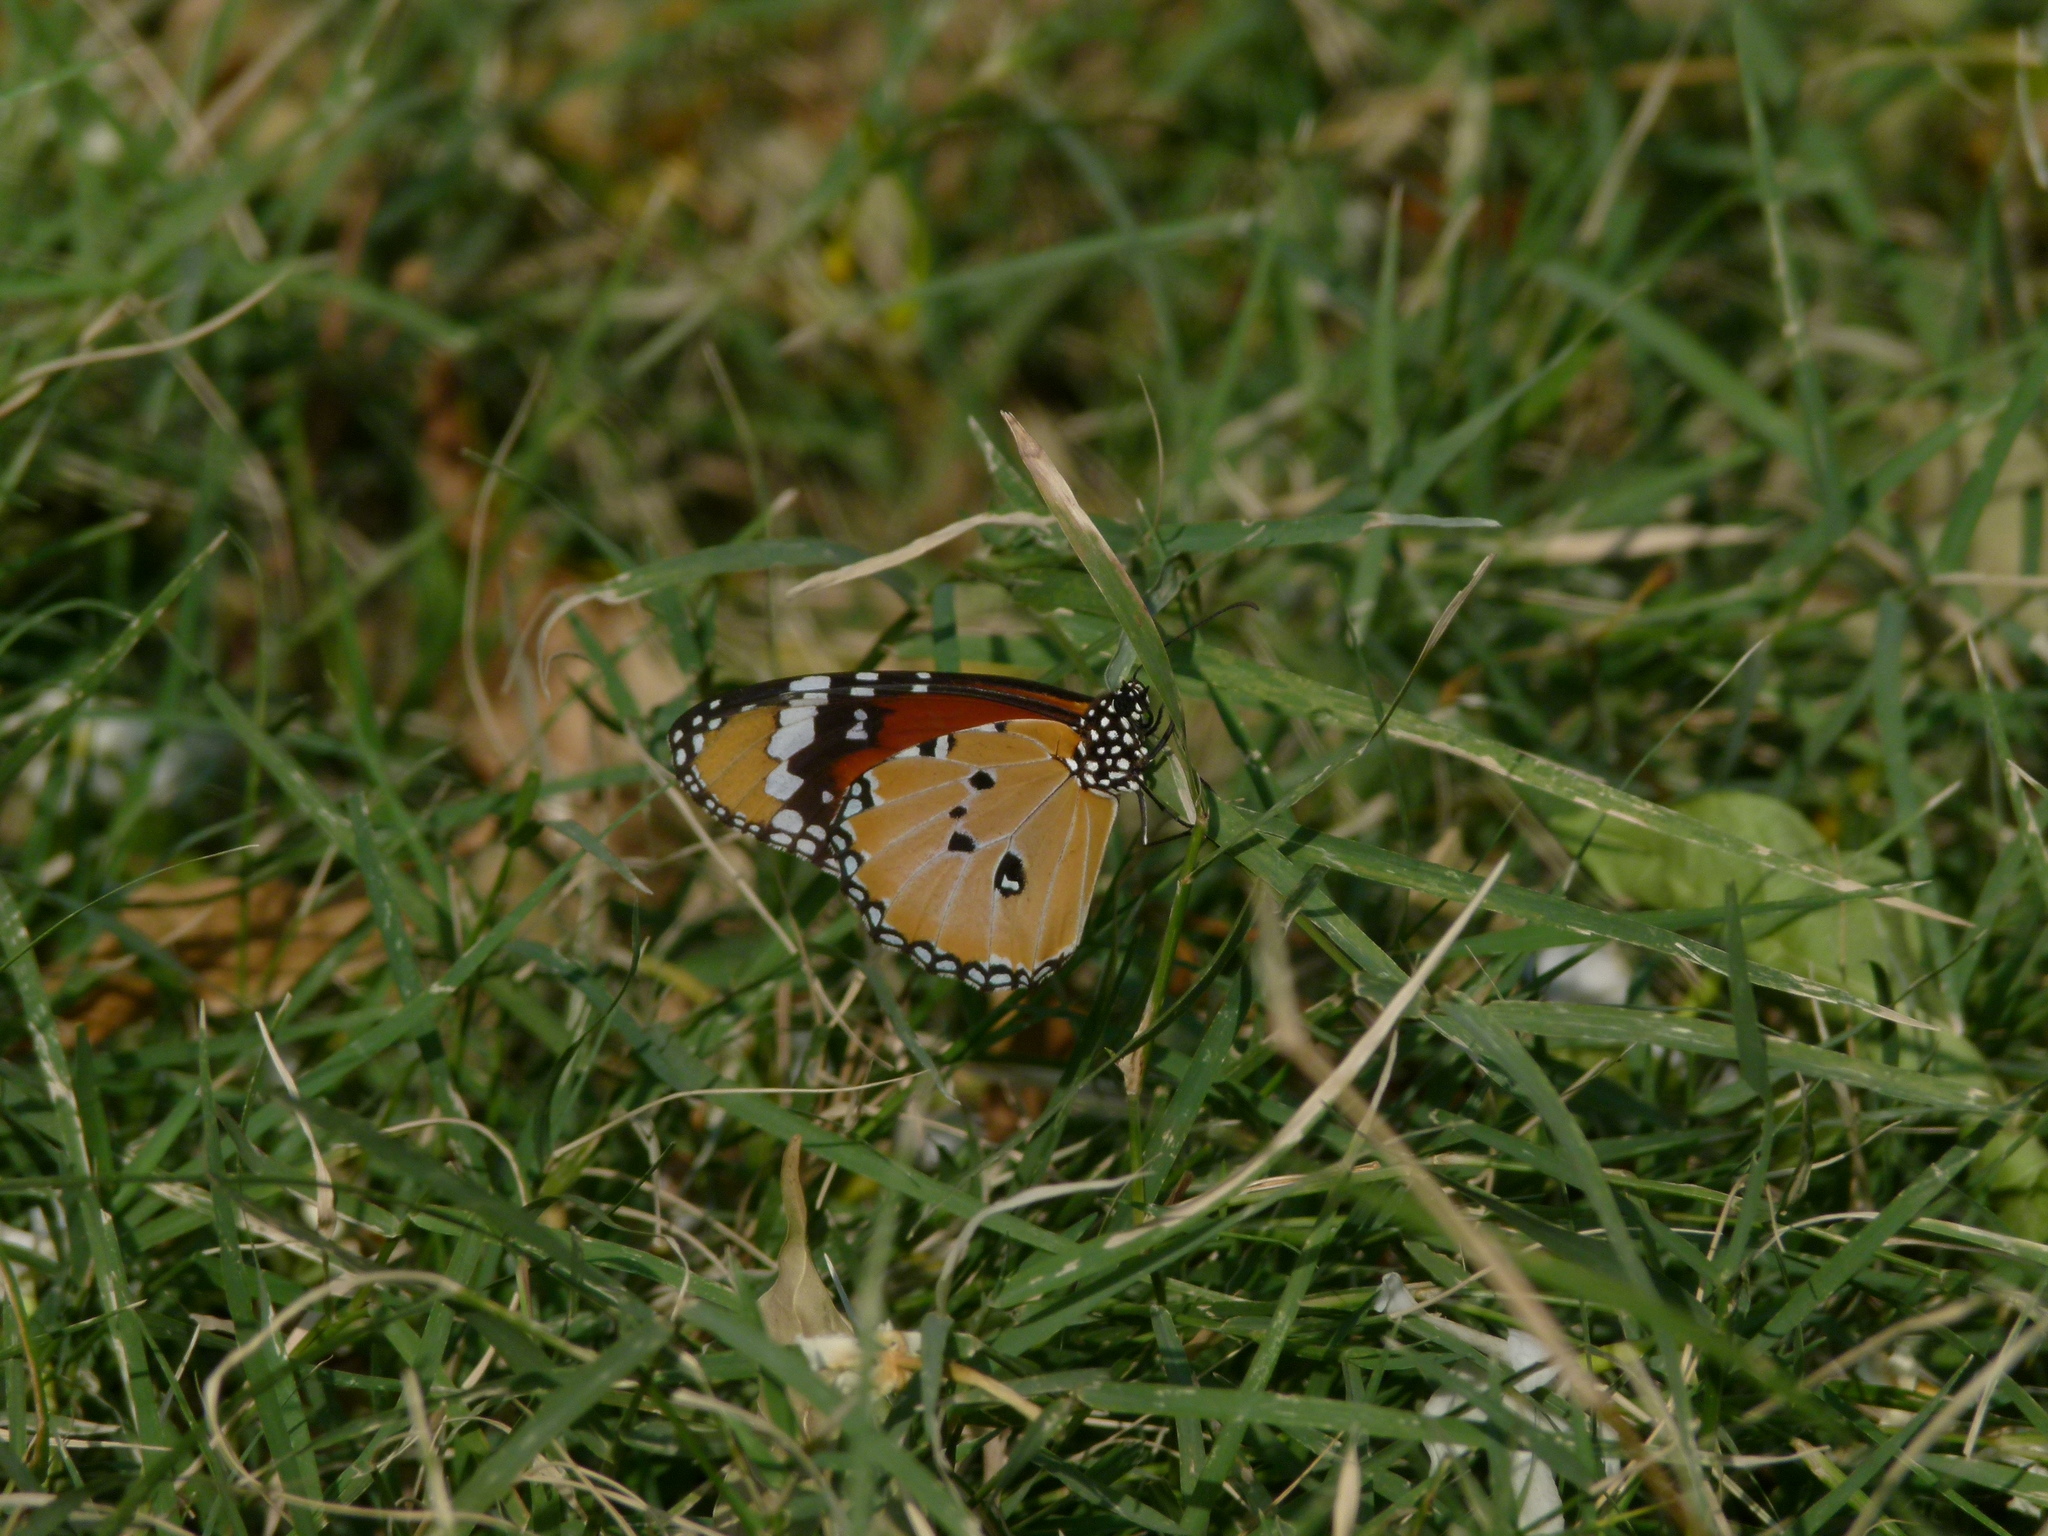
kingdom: Animalia
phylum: Arthropoda
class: Insecta
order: Lepidoptera
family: Nymphalidae
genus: Danaus
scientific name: Danaus chrysippus
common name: Plain tiger
